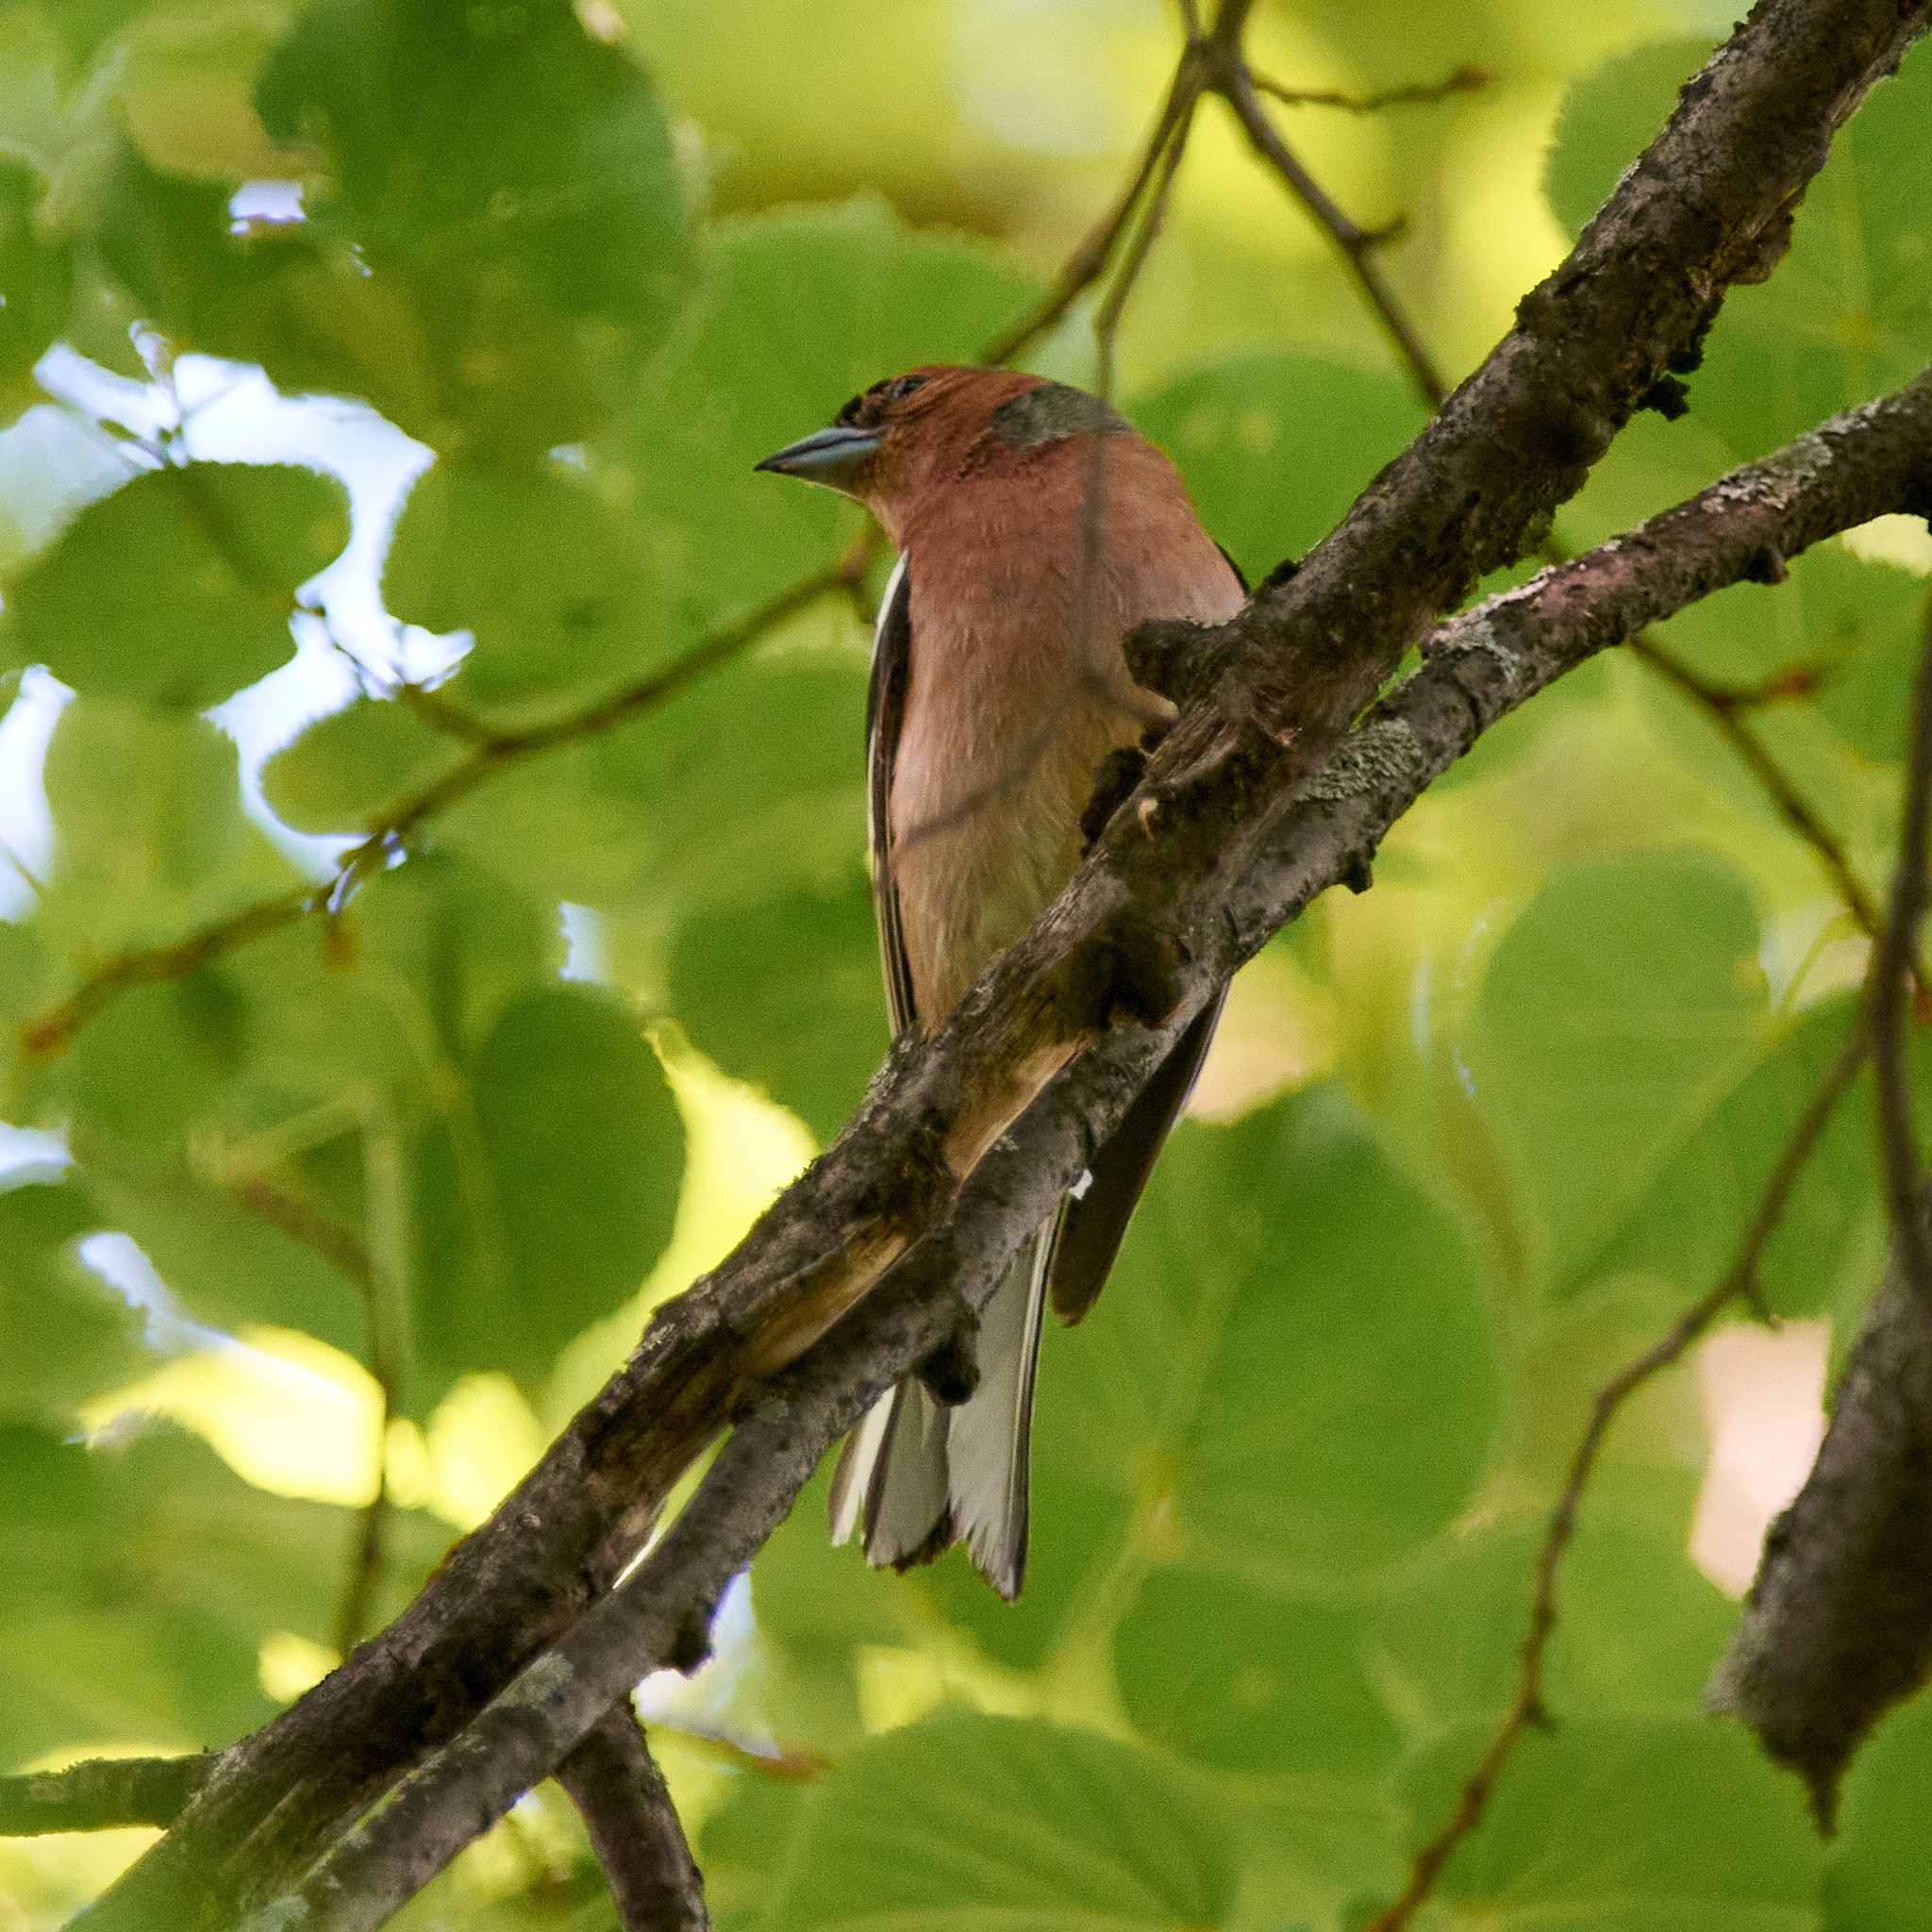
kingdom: Animalia
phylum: Chordata
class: Aves
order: Passeriformes
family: Fringillidae
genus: Fringilla
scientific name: Fringilla coelebs
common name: Common chaffinch
